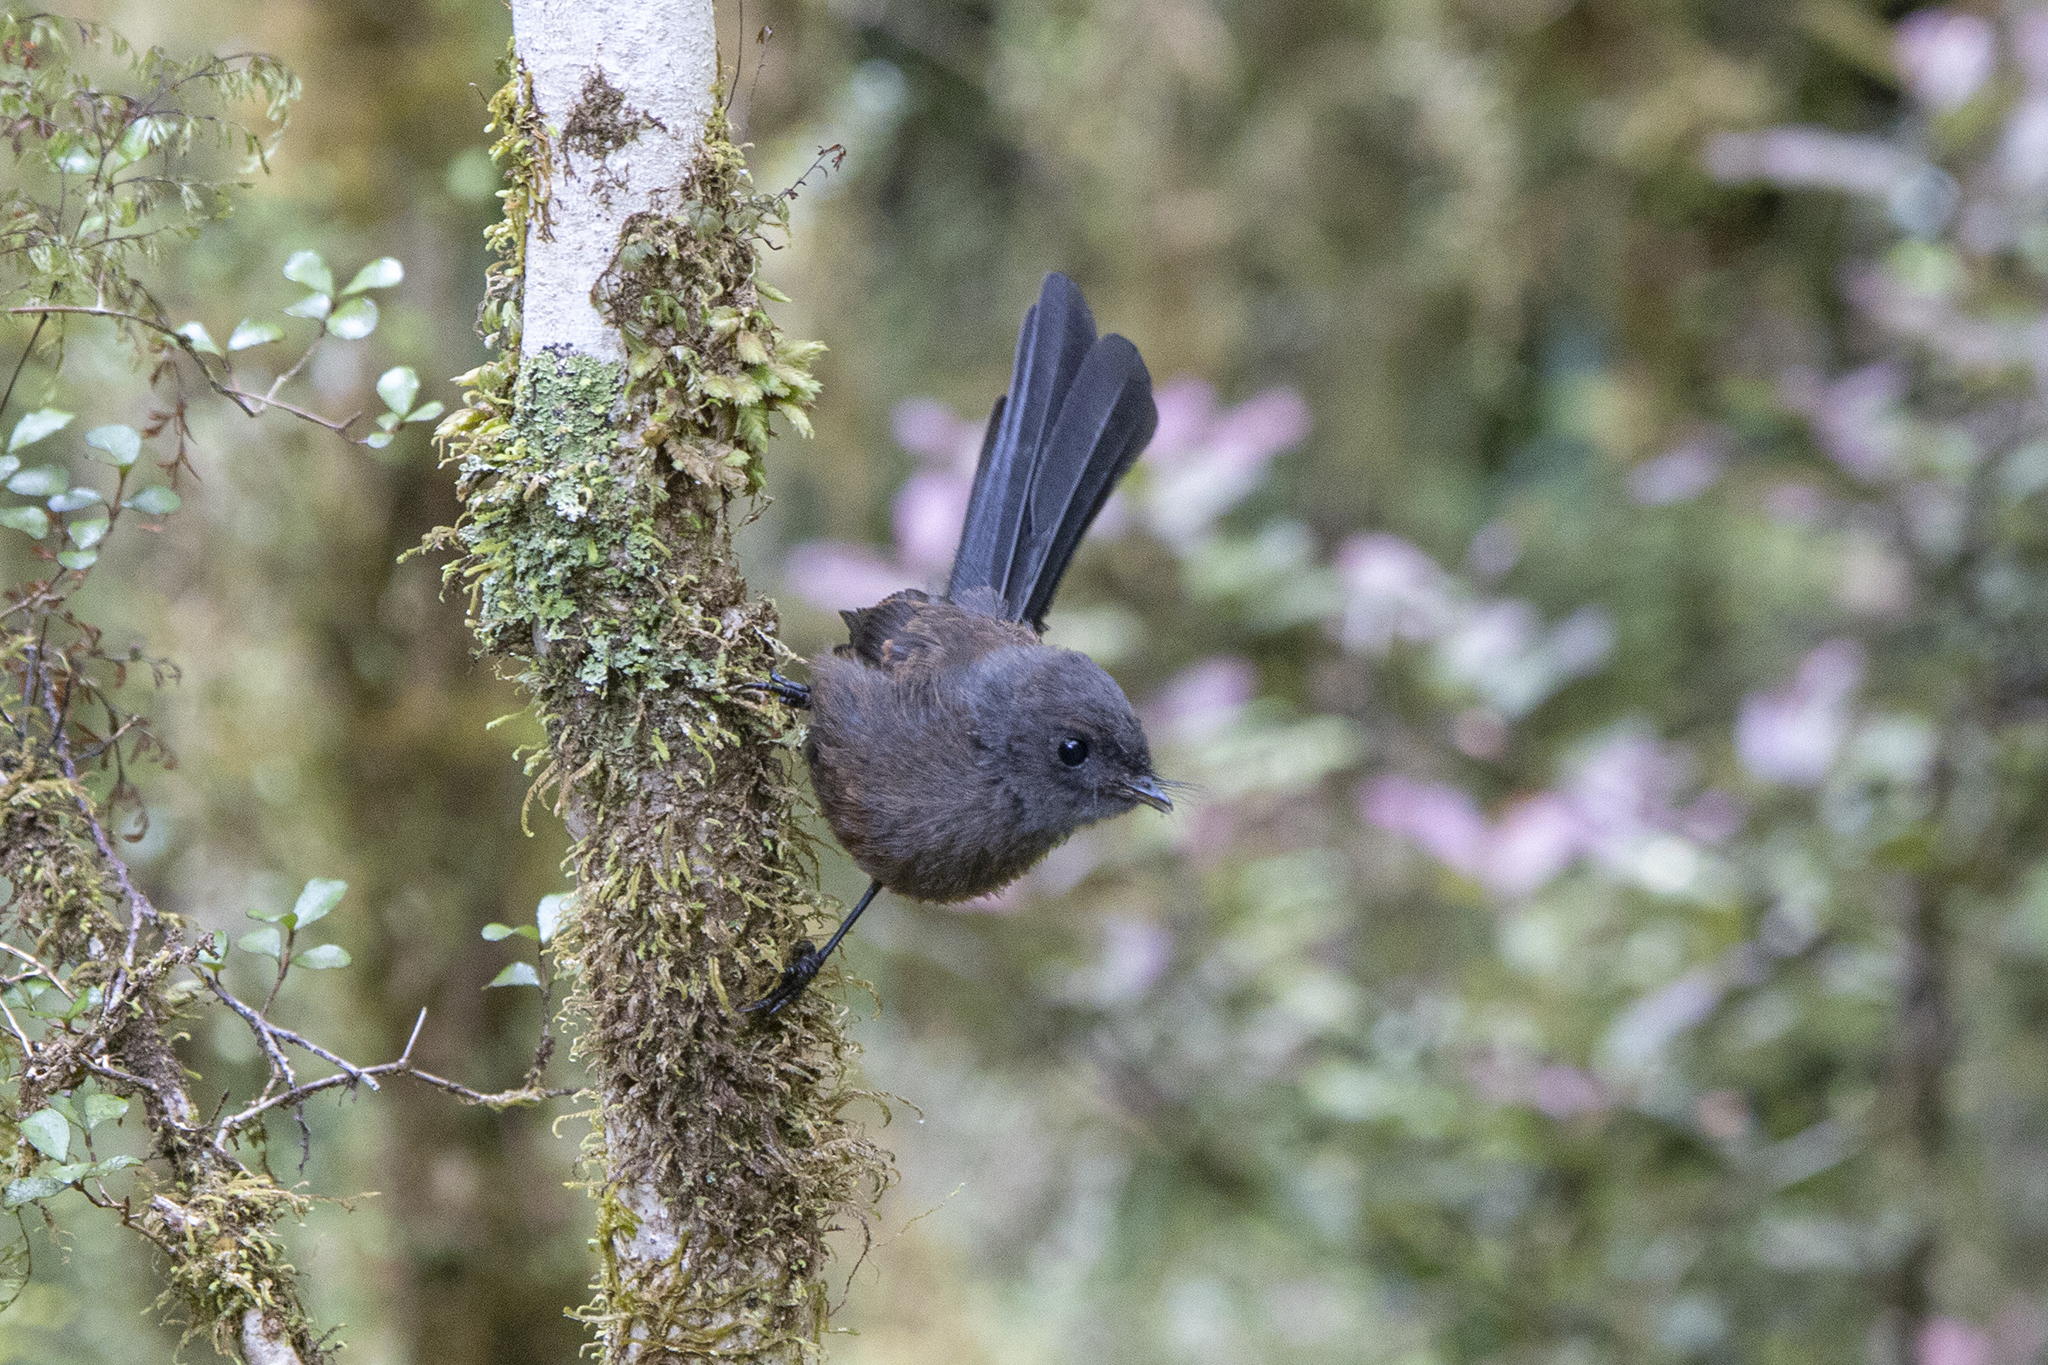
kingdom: Animalia
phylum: Chordata
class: Aves
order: Passeriformes
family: Rhipiduridae
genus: Rhipidura
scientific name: Rhipidura fuliginosa
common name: New zealand fantail
